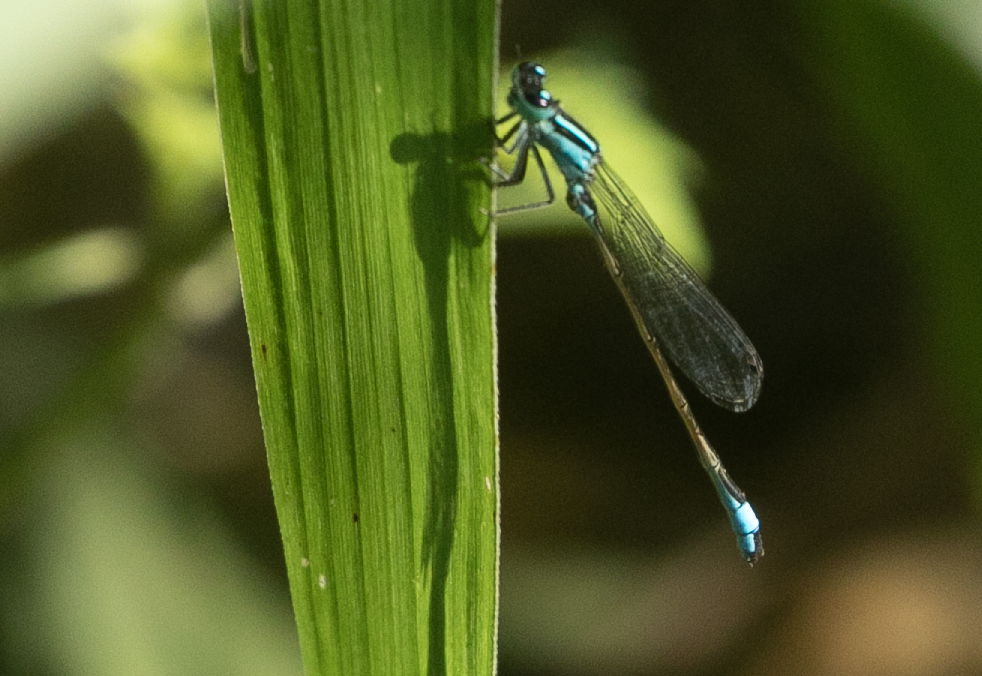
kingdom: Animalia
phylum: Arthropoda
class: Insecta
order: Odonata
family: Coenagrionidae
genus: Ischnura
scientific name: Ischnura elegans
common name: Blue-tailed damselfly
